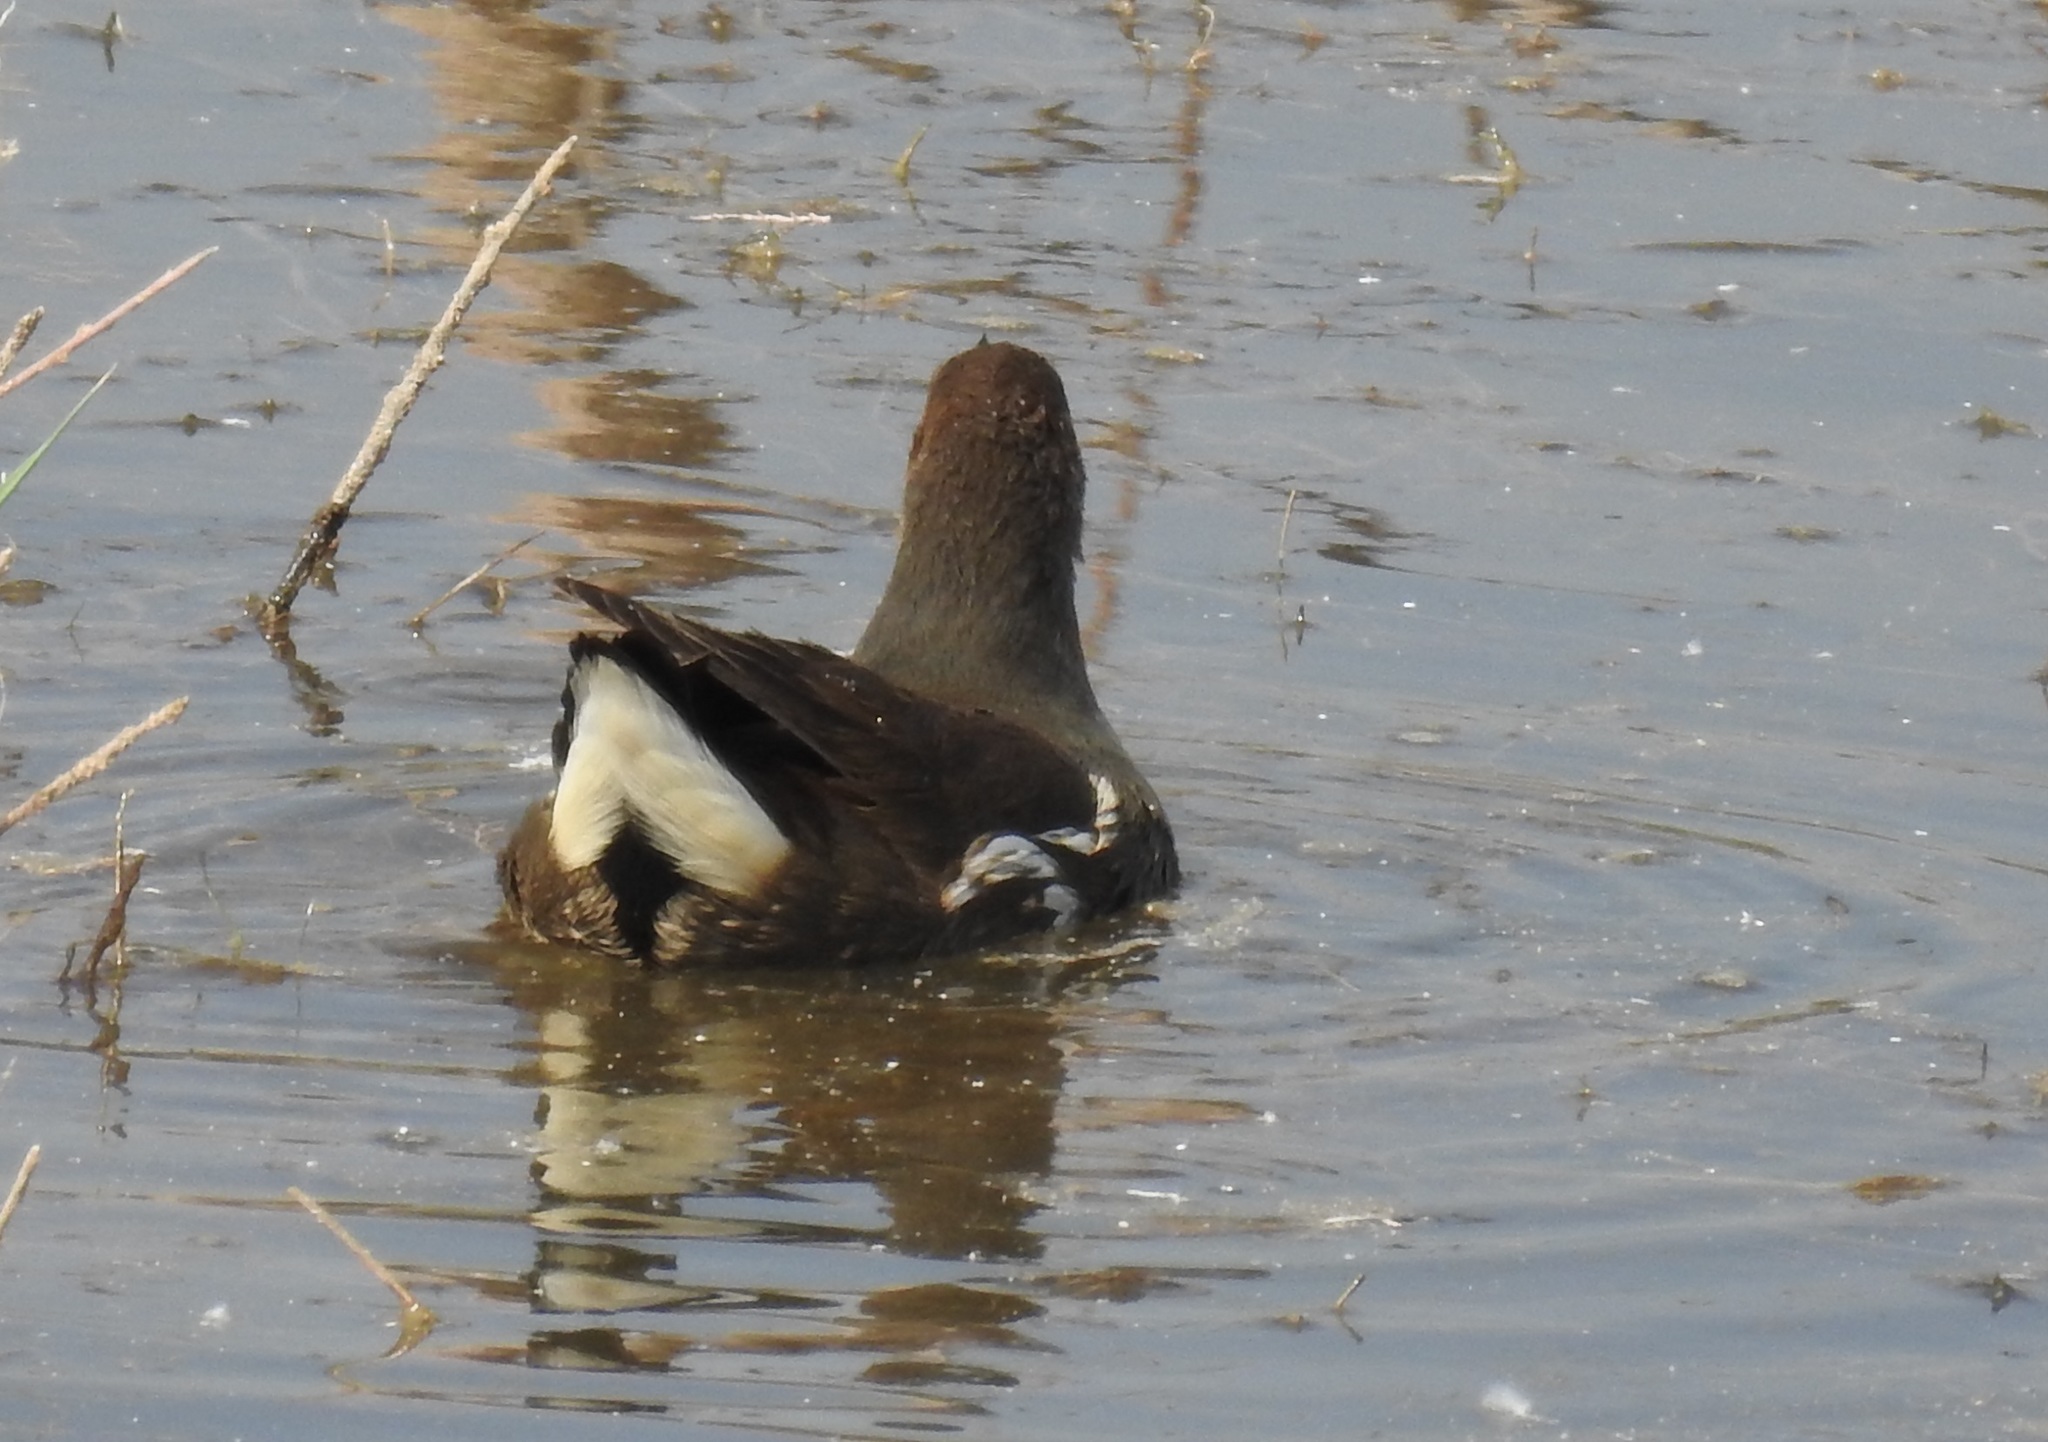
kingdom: Animalia
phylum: Chordata
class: Aves
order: Gruiformes
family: Rallidae
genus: Gallinula
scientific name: Gallinula chloropus
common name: Common moorhen
